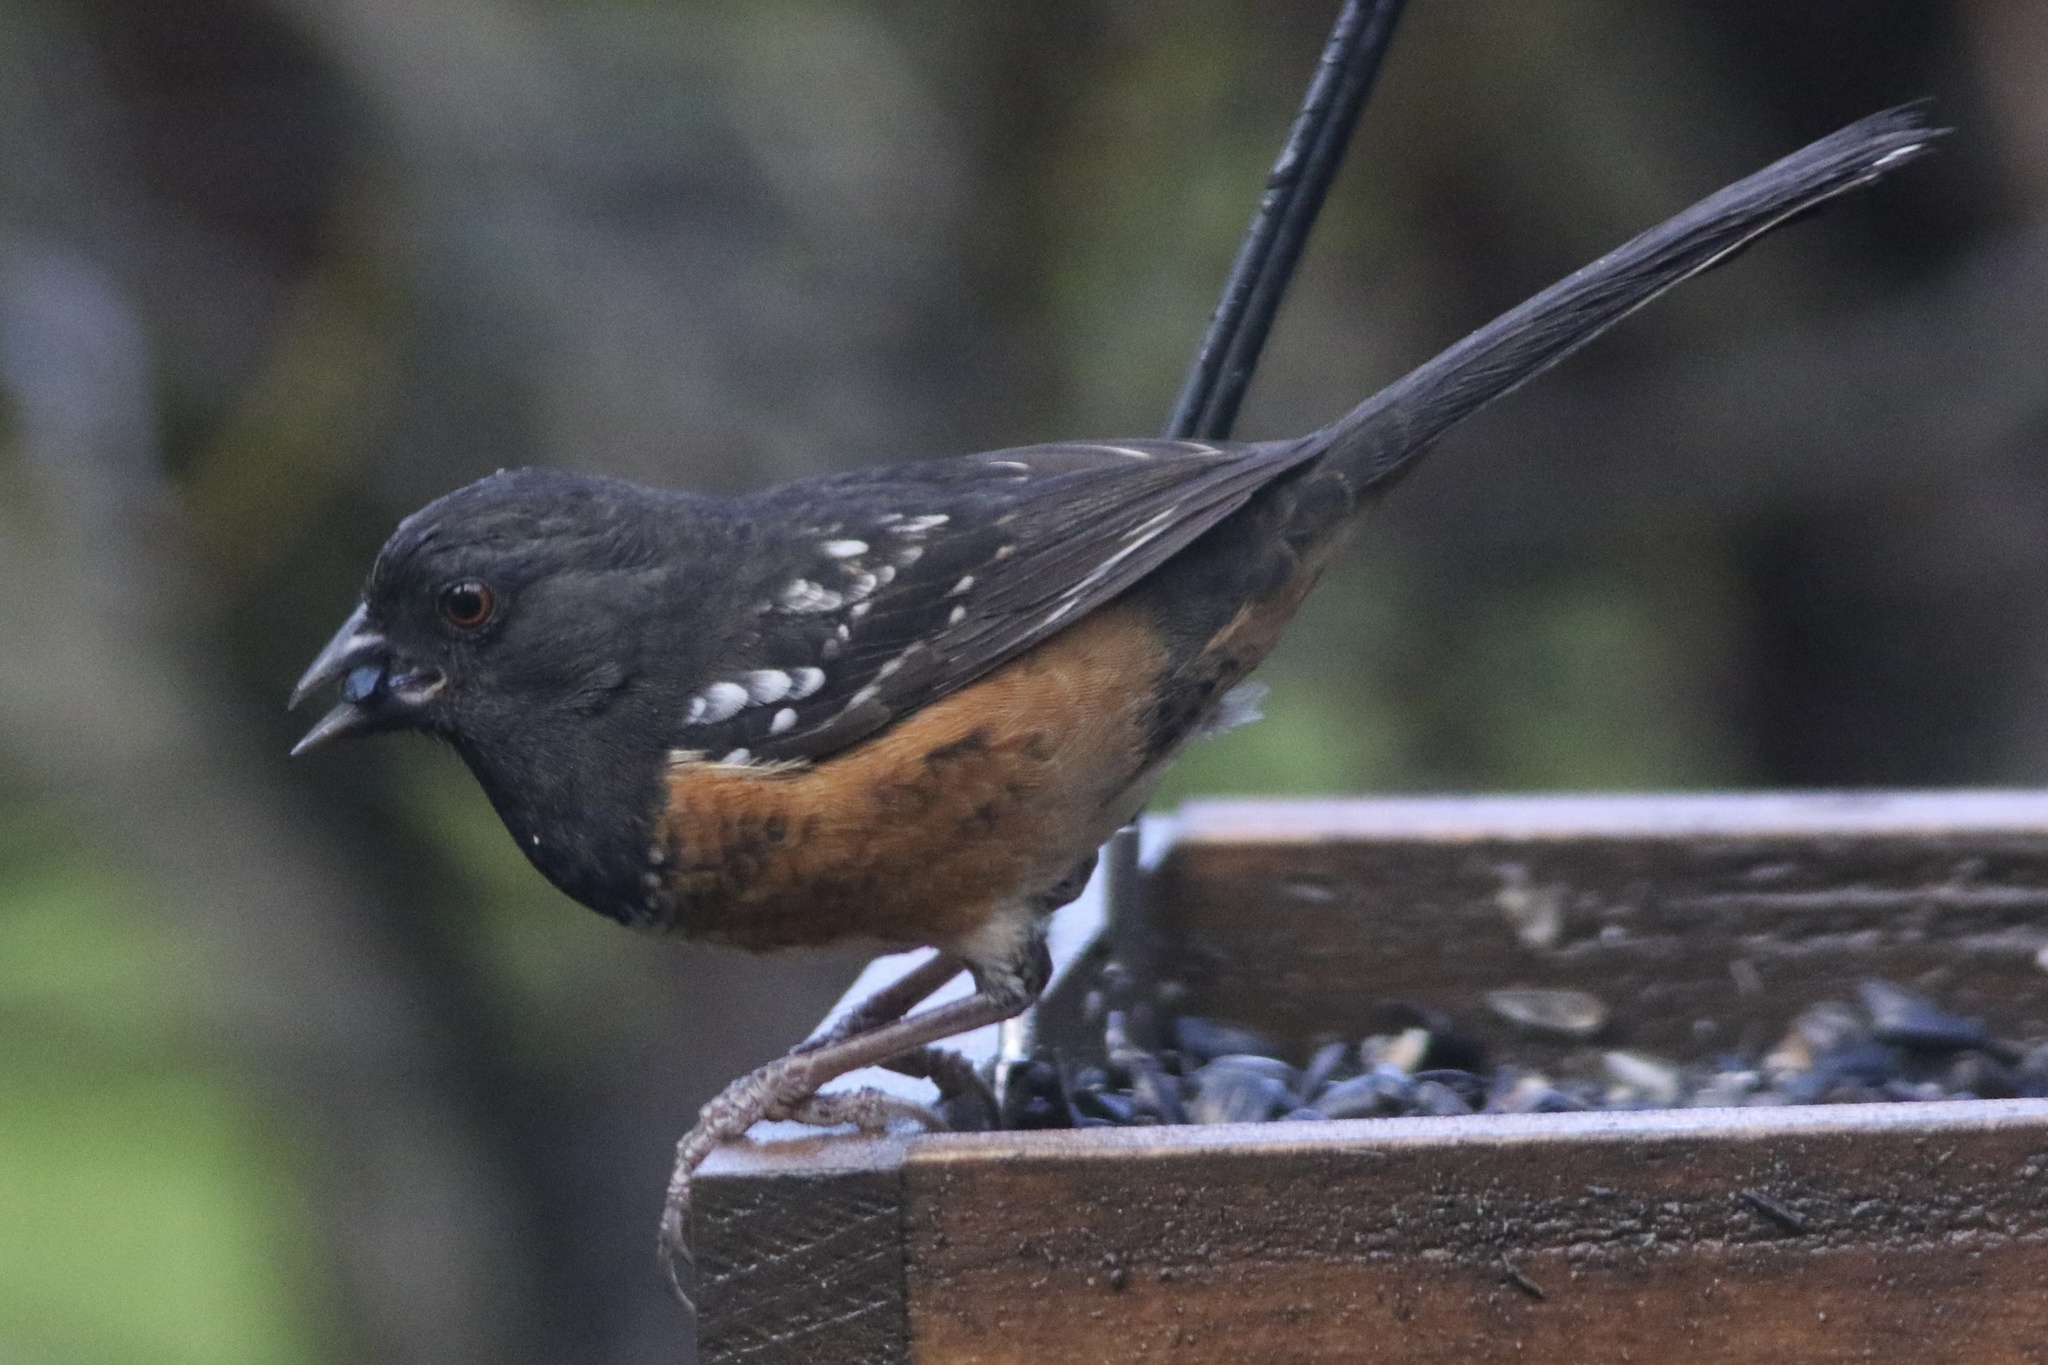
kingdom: Animalia
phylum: Chordata
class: Aves
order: Passeriformes
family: Passerellidae
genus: Pipilo
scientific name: Pipilo maculatus
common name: Spotted towhee
